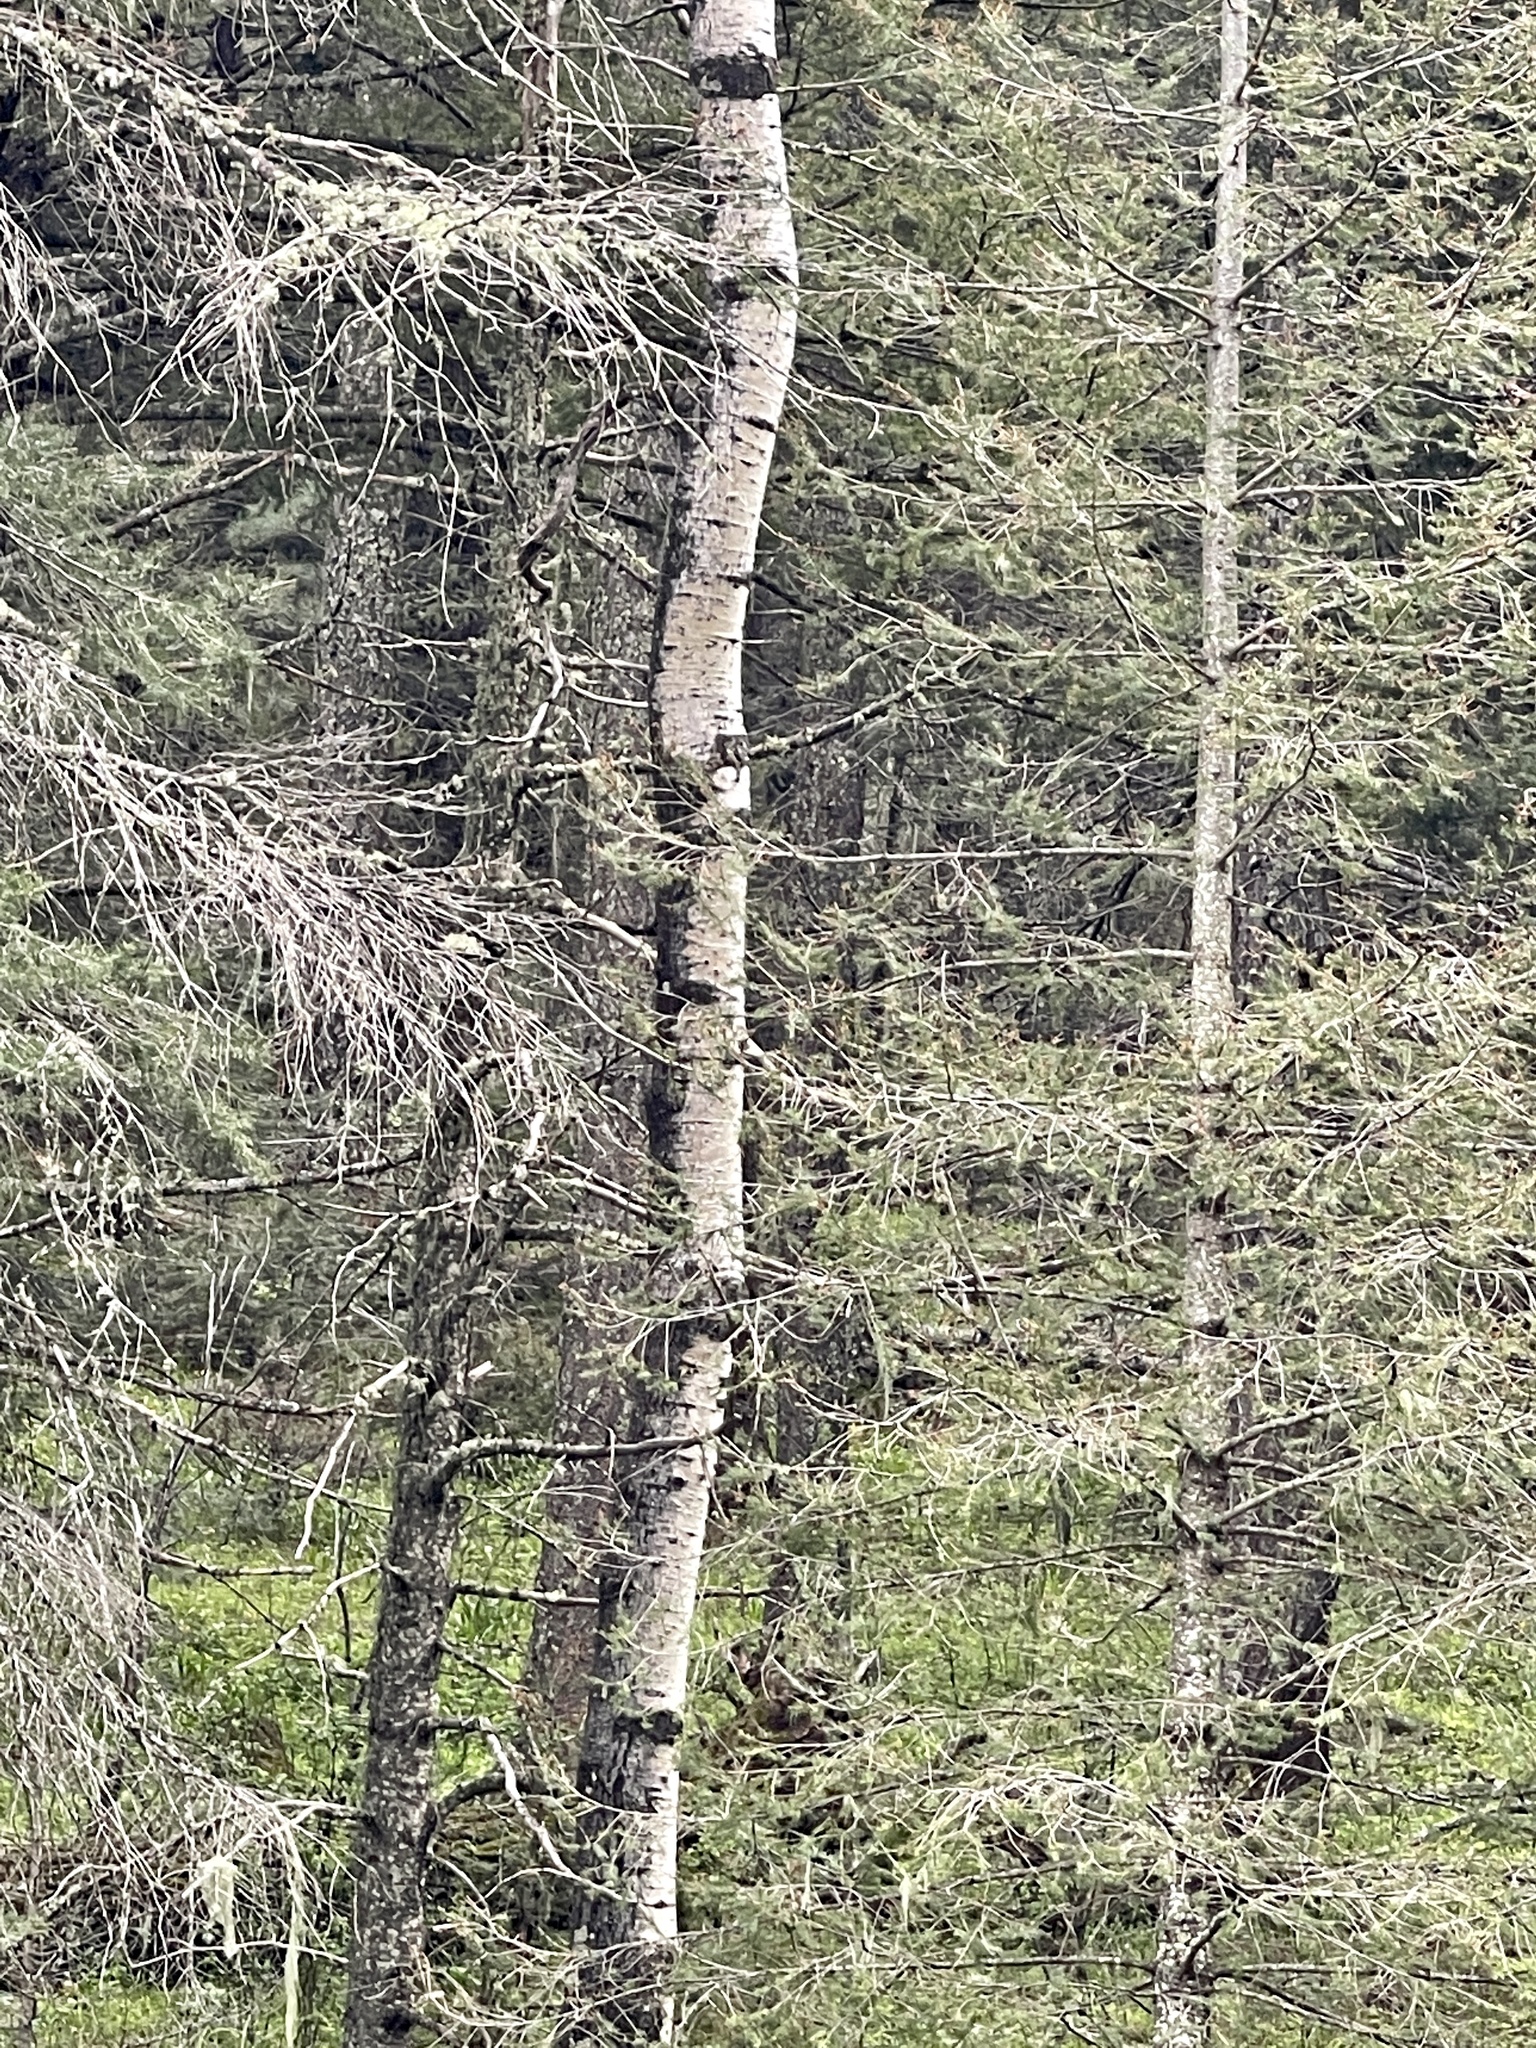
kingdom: Plantae
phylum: Tracheophyta
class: Magnoliopsida
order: Malpighiales
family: Salicaceae
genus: Populus
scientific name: Populus tremuloides
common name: Quaking aspen
